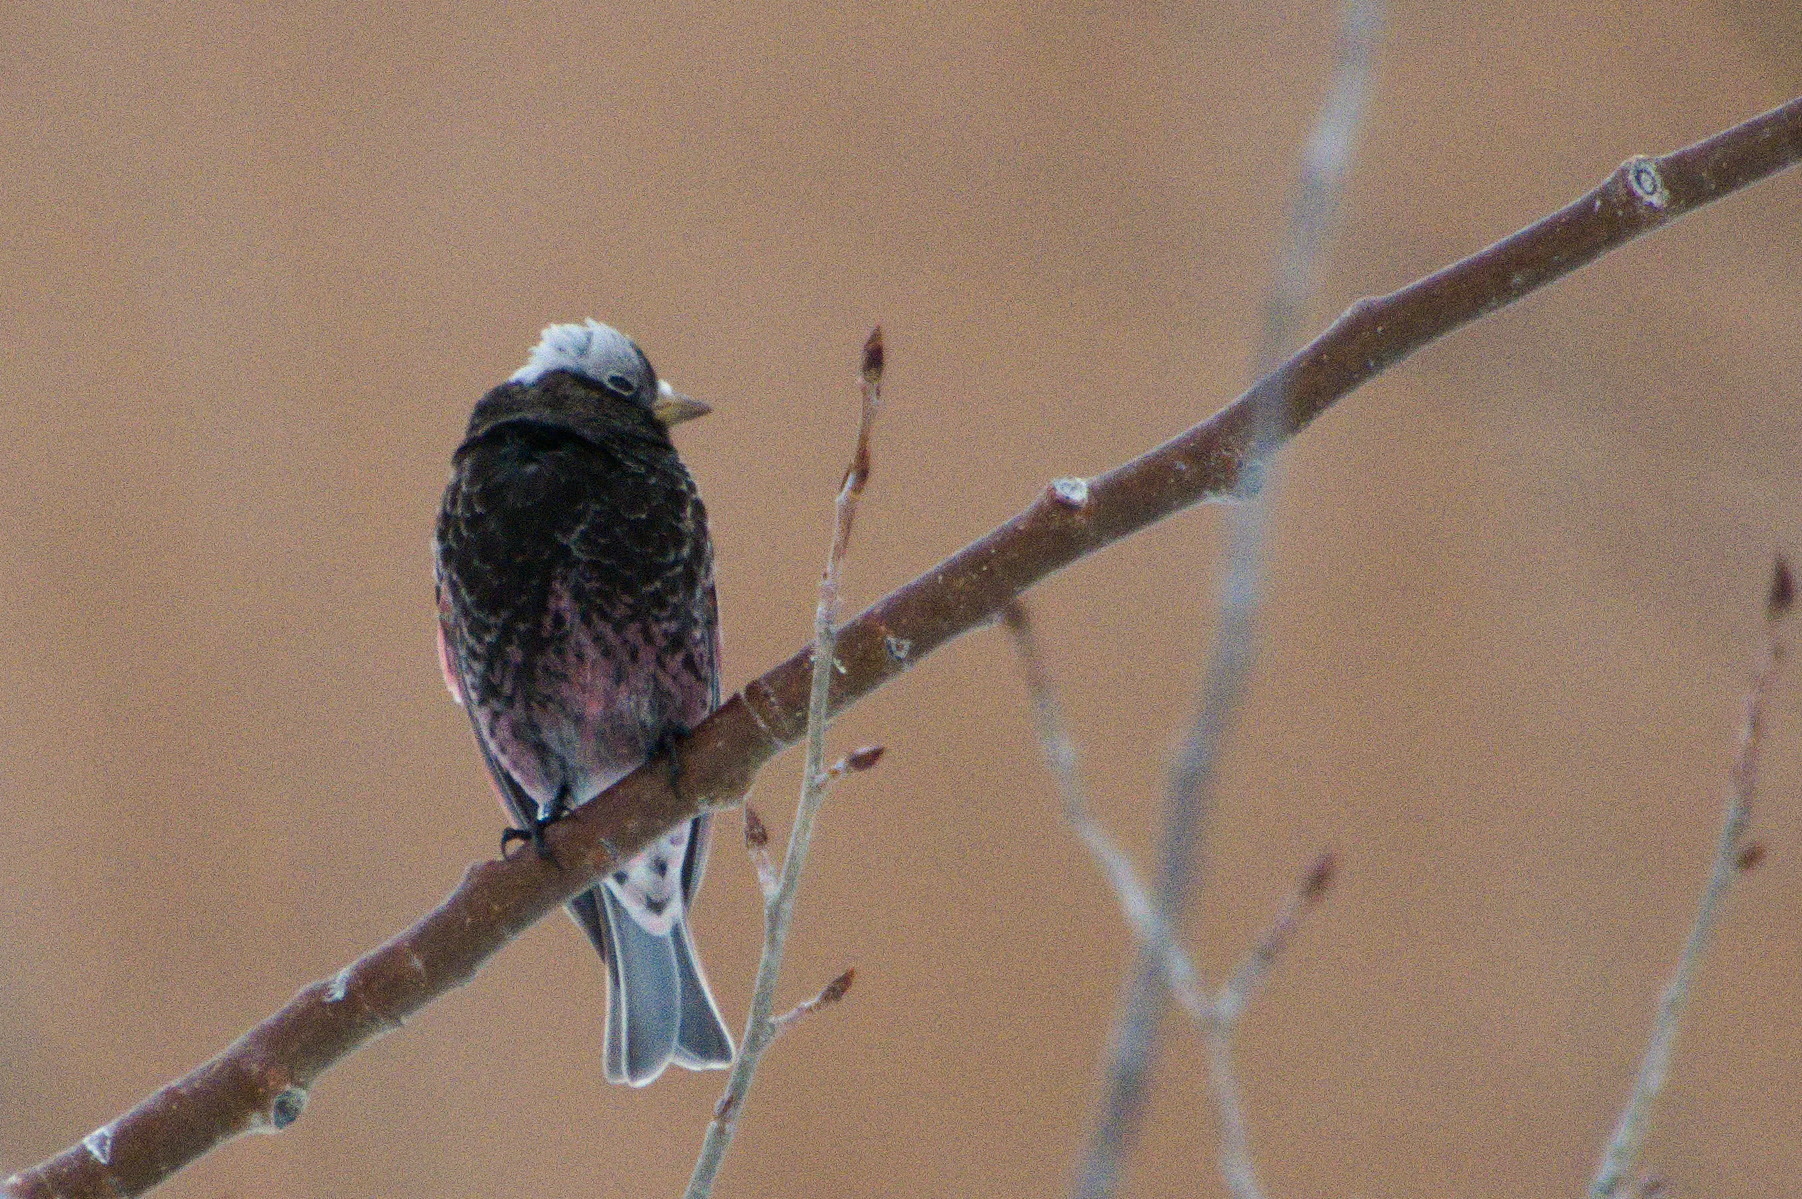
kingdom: Animalia
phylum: Chordata
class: Aves
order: Passeriformes
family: Fringillidae
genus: Leucosticte
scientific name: Leucosticte atrata
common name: Black rosy-finch
